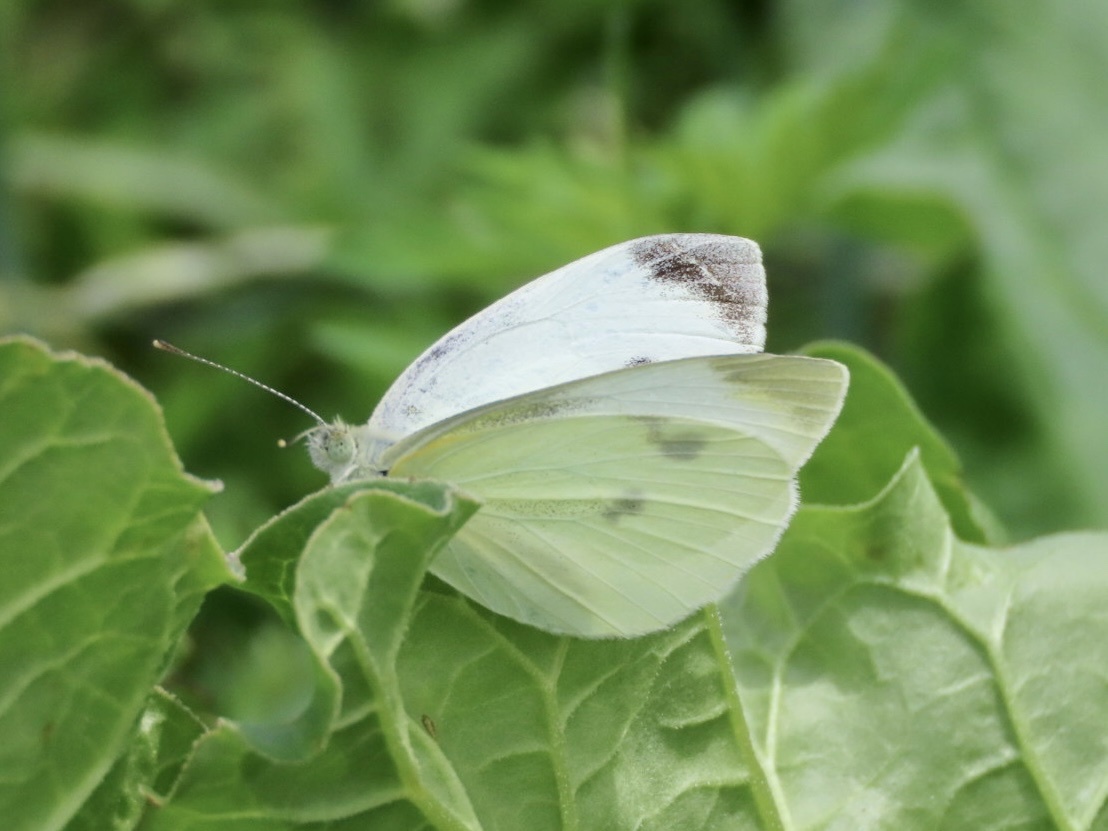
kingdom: Animalia
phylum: Arthropoda
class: Insecta
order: Lepidoptera
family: Pieridae
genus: Pieris
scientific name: Pieris brassicae
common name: Large white
